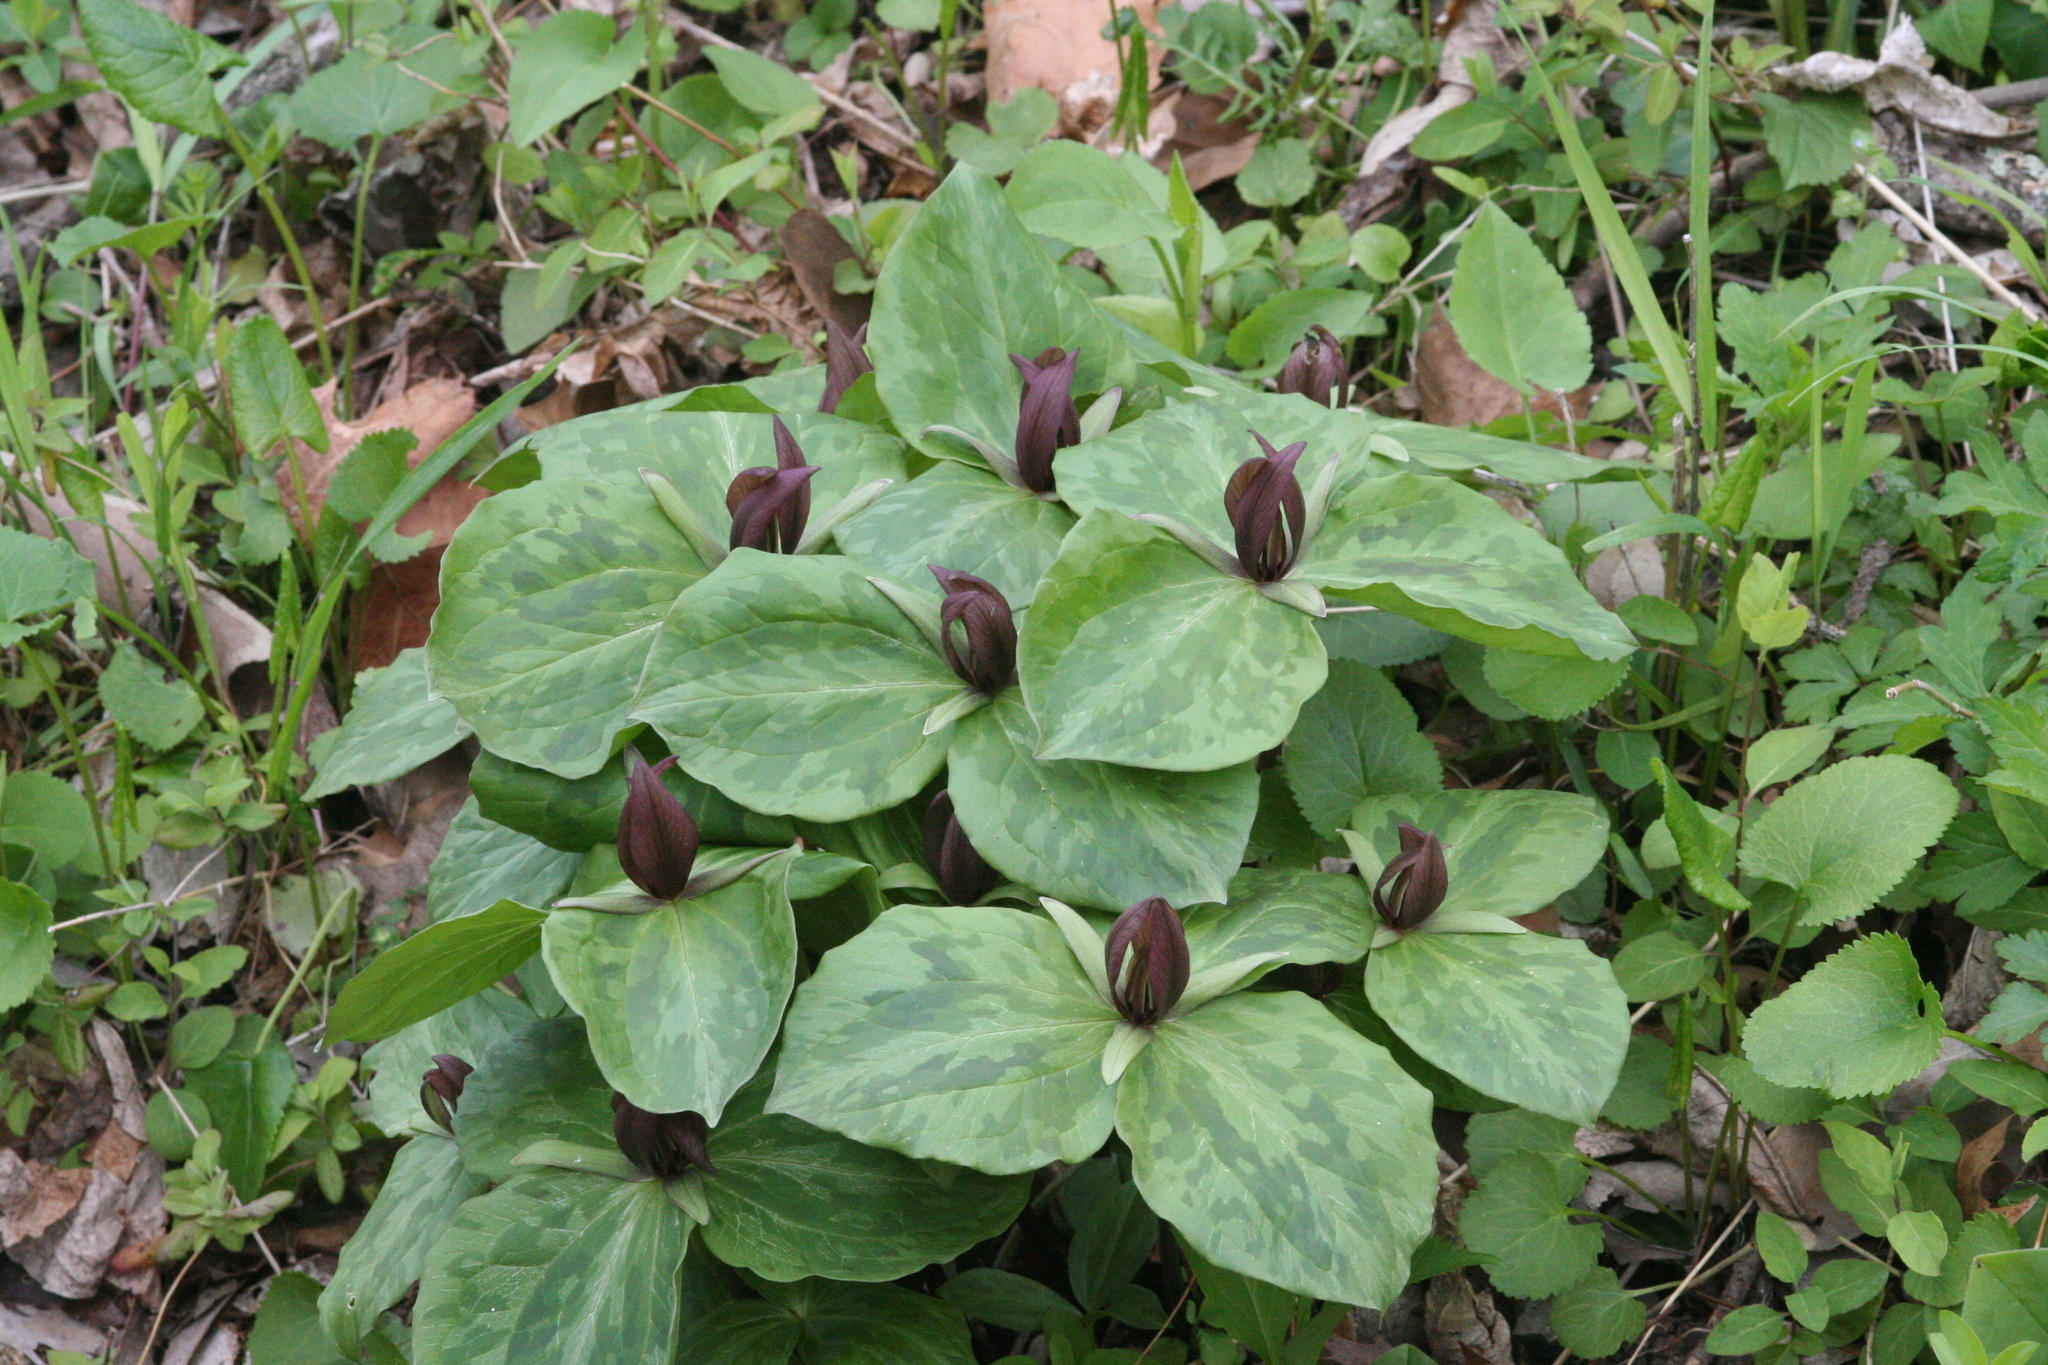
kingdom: Plantae
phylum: Tracheophyta
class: Liliopsida
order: Liliales
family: Melanthiaceae
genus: Trillium
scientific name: Trillium sessile
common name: Sessile trillium
